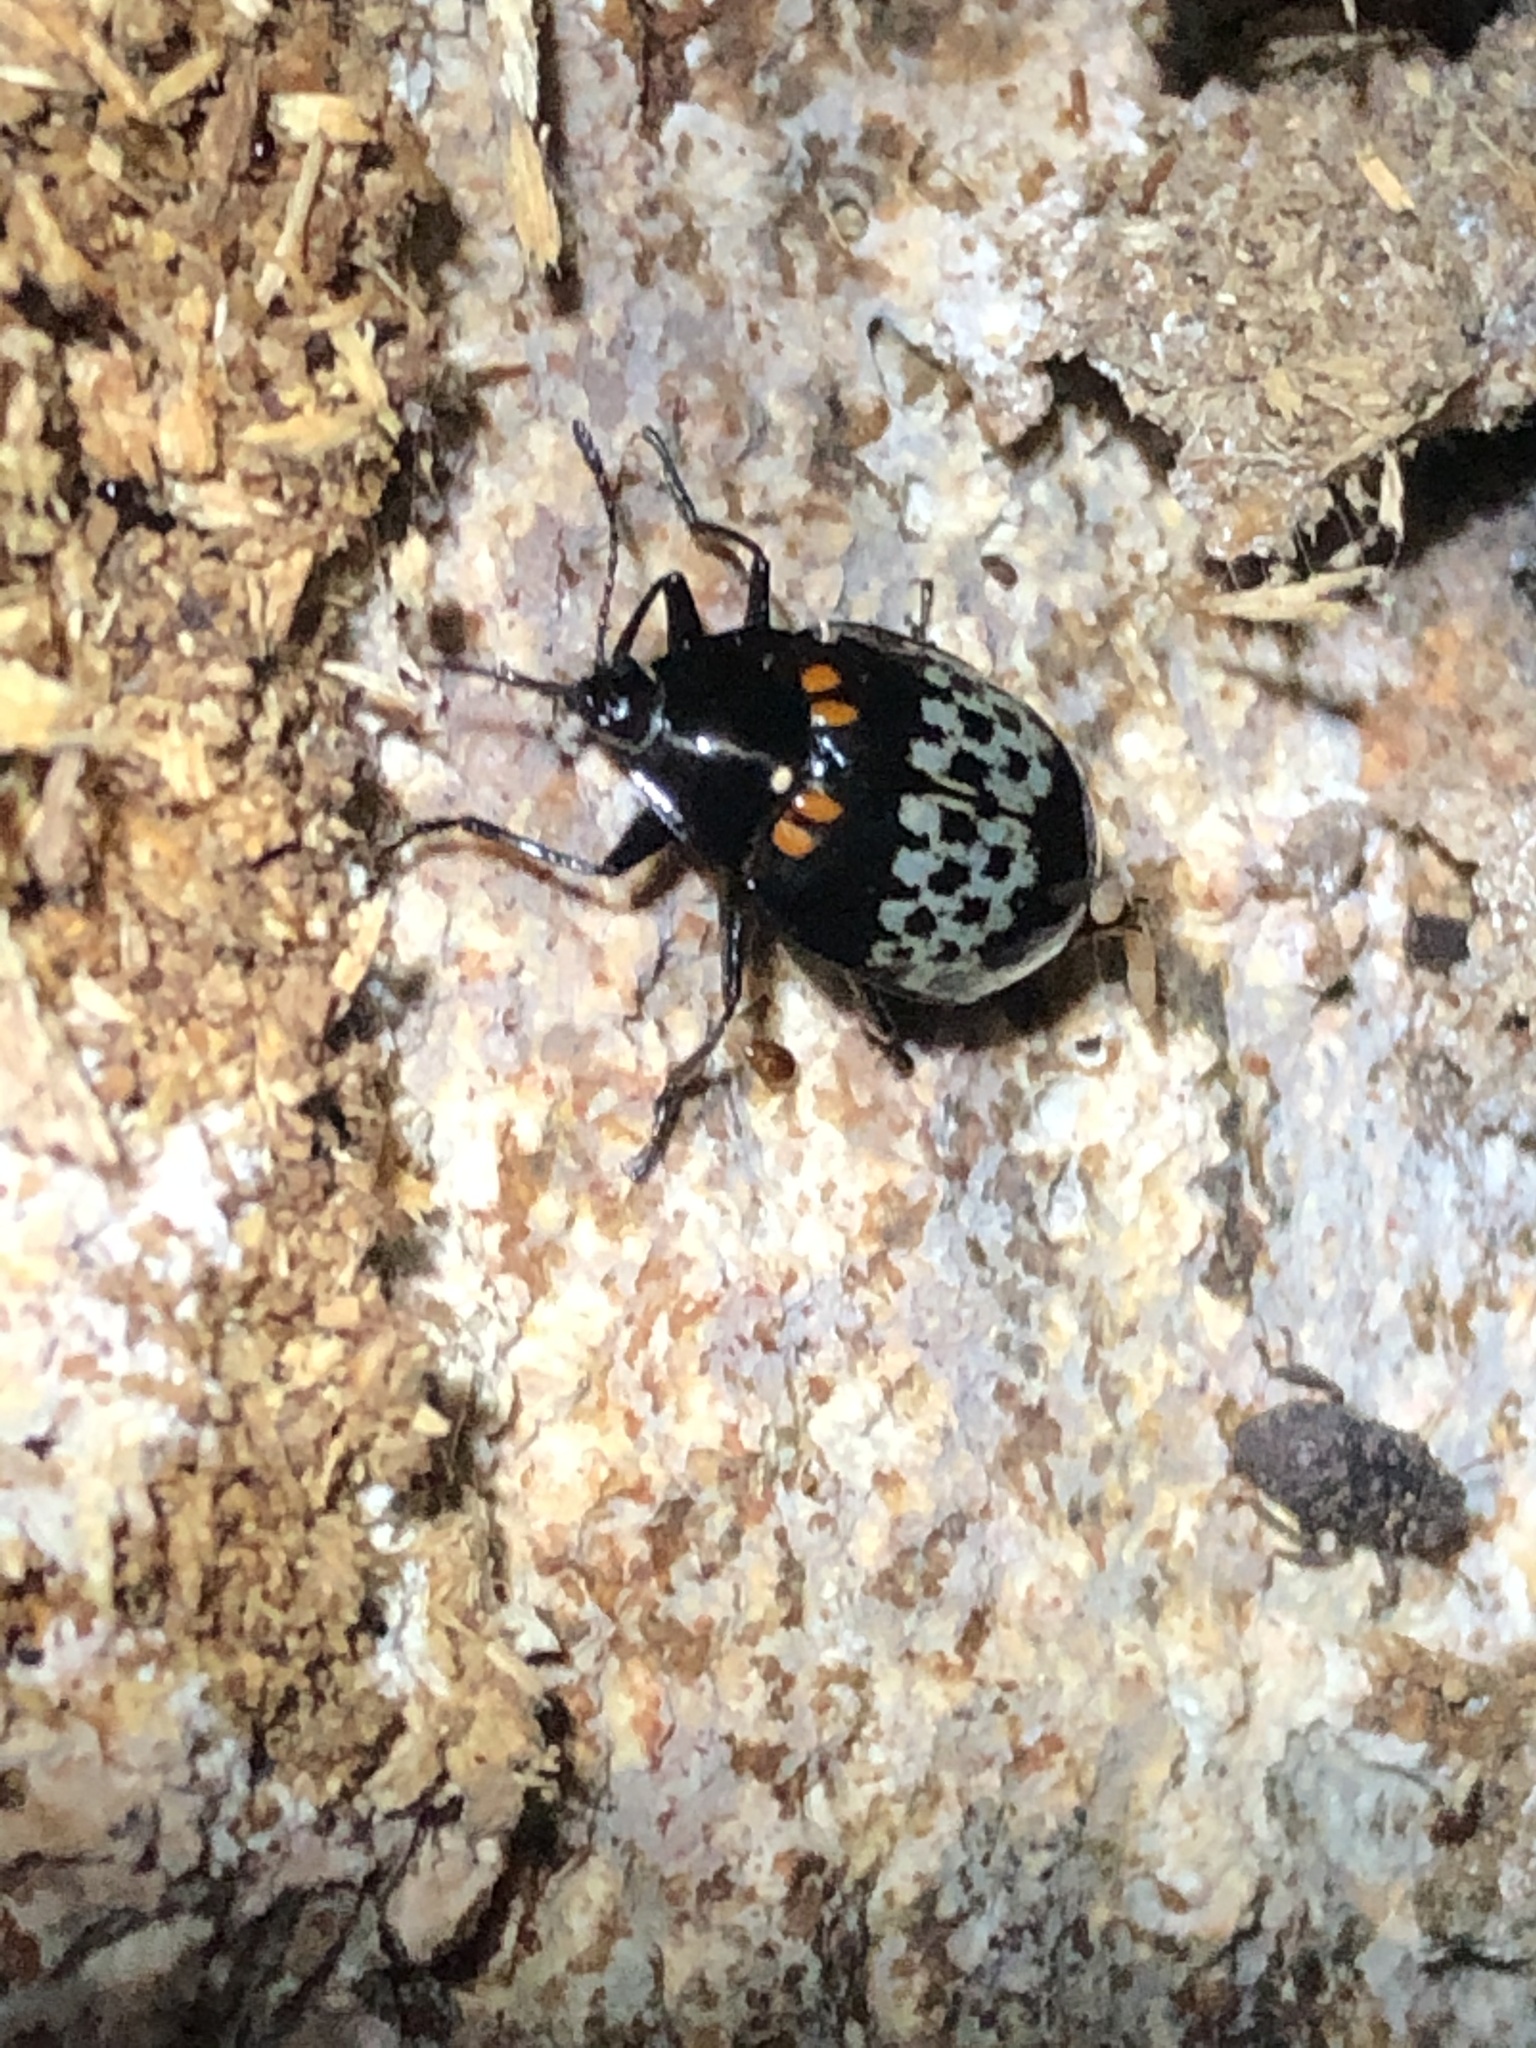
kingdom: Animalia
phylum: Arthropoda
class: Insecta
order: Coleoptera
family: Erotylidae
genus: Prepopharus
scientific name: Prepopharus
